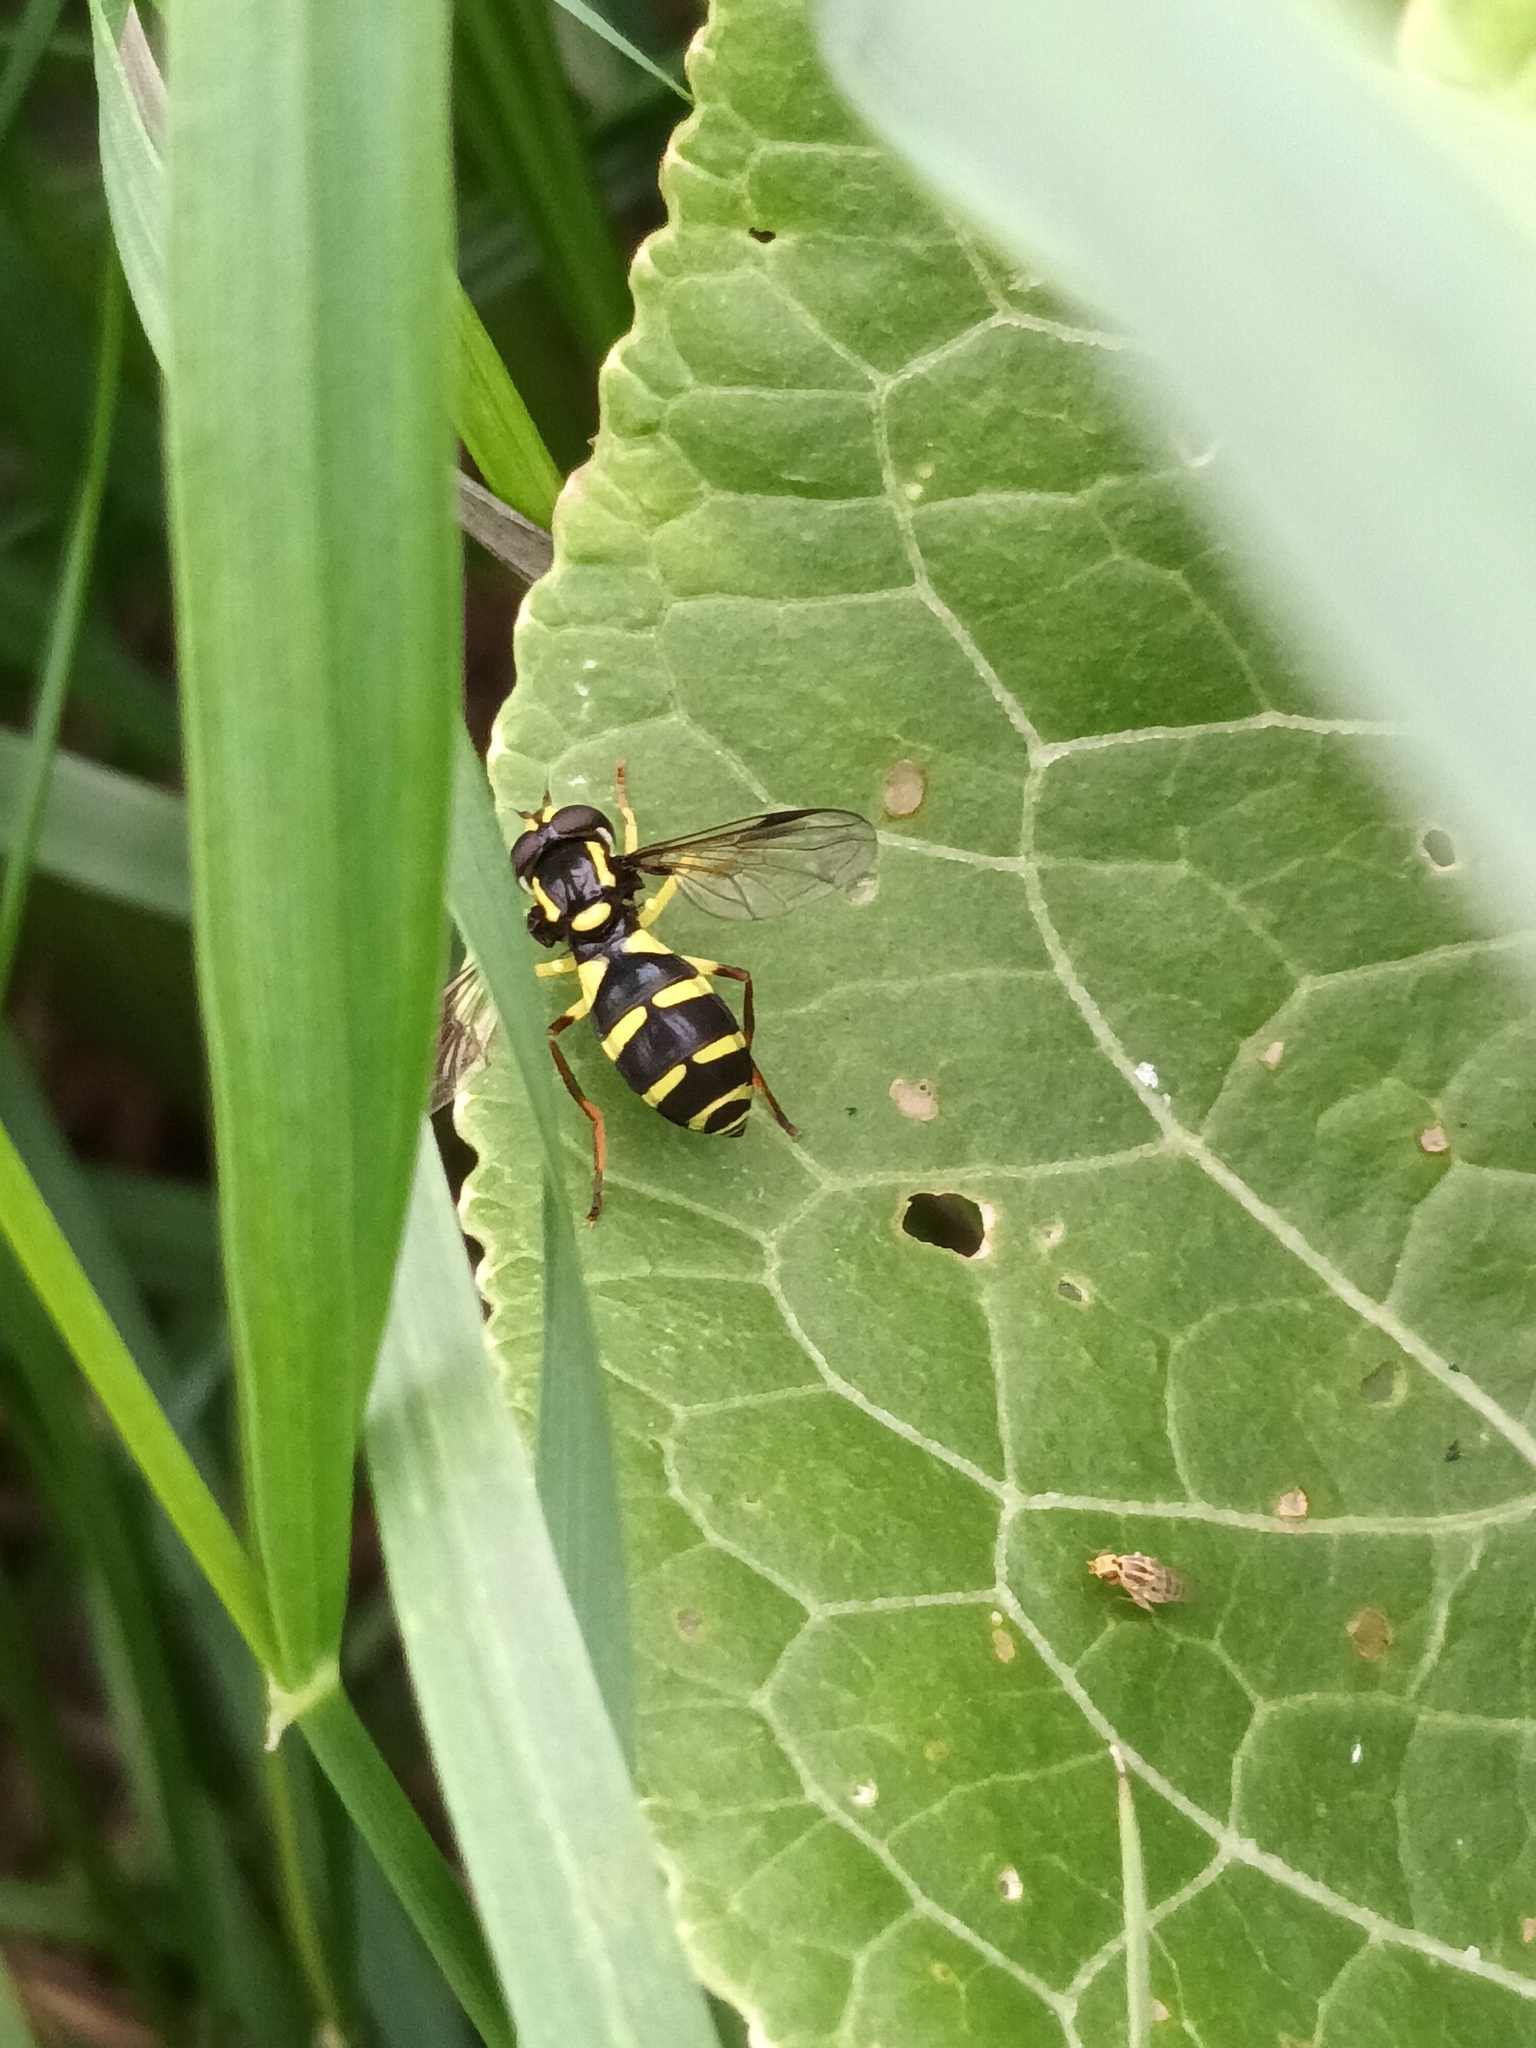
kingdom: Animalia
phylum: Arthropoda
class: Insecta
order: Diptera
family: Syrphidae
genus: Philhelius
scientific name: Philhelius pedissequum
